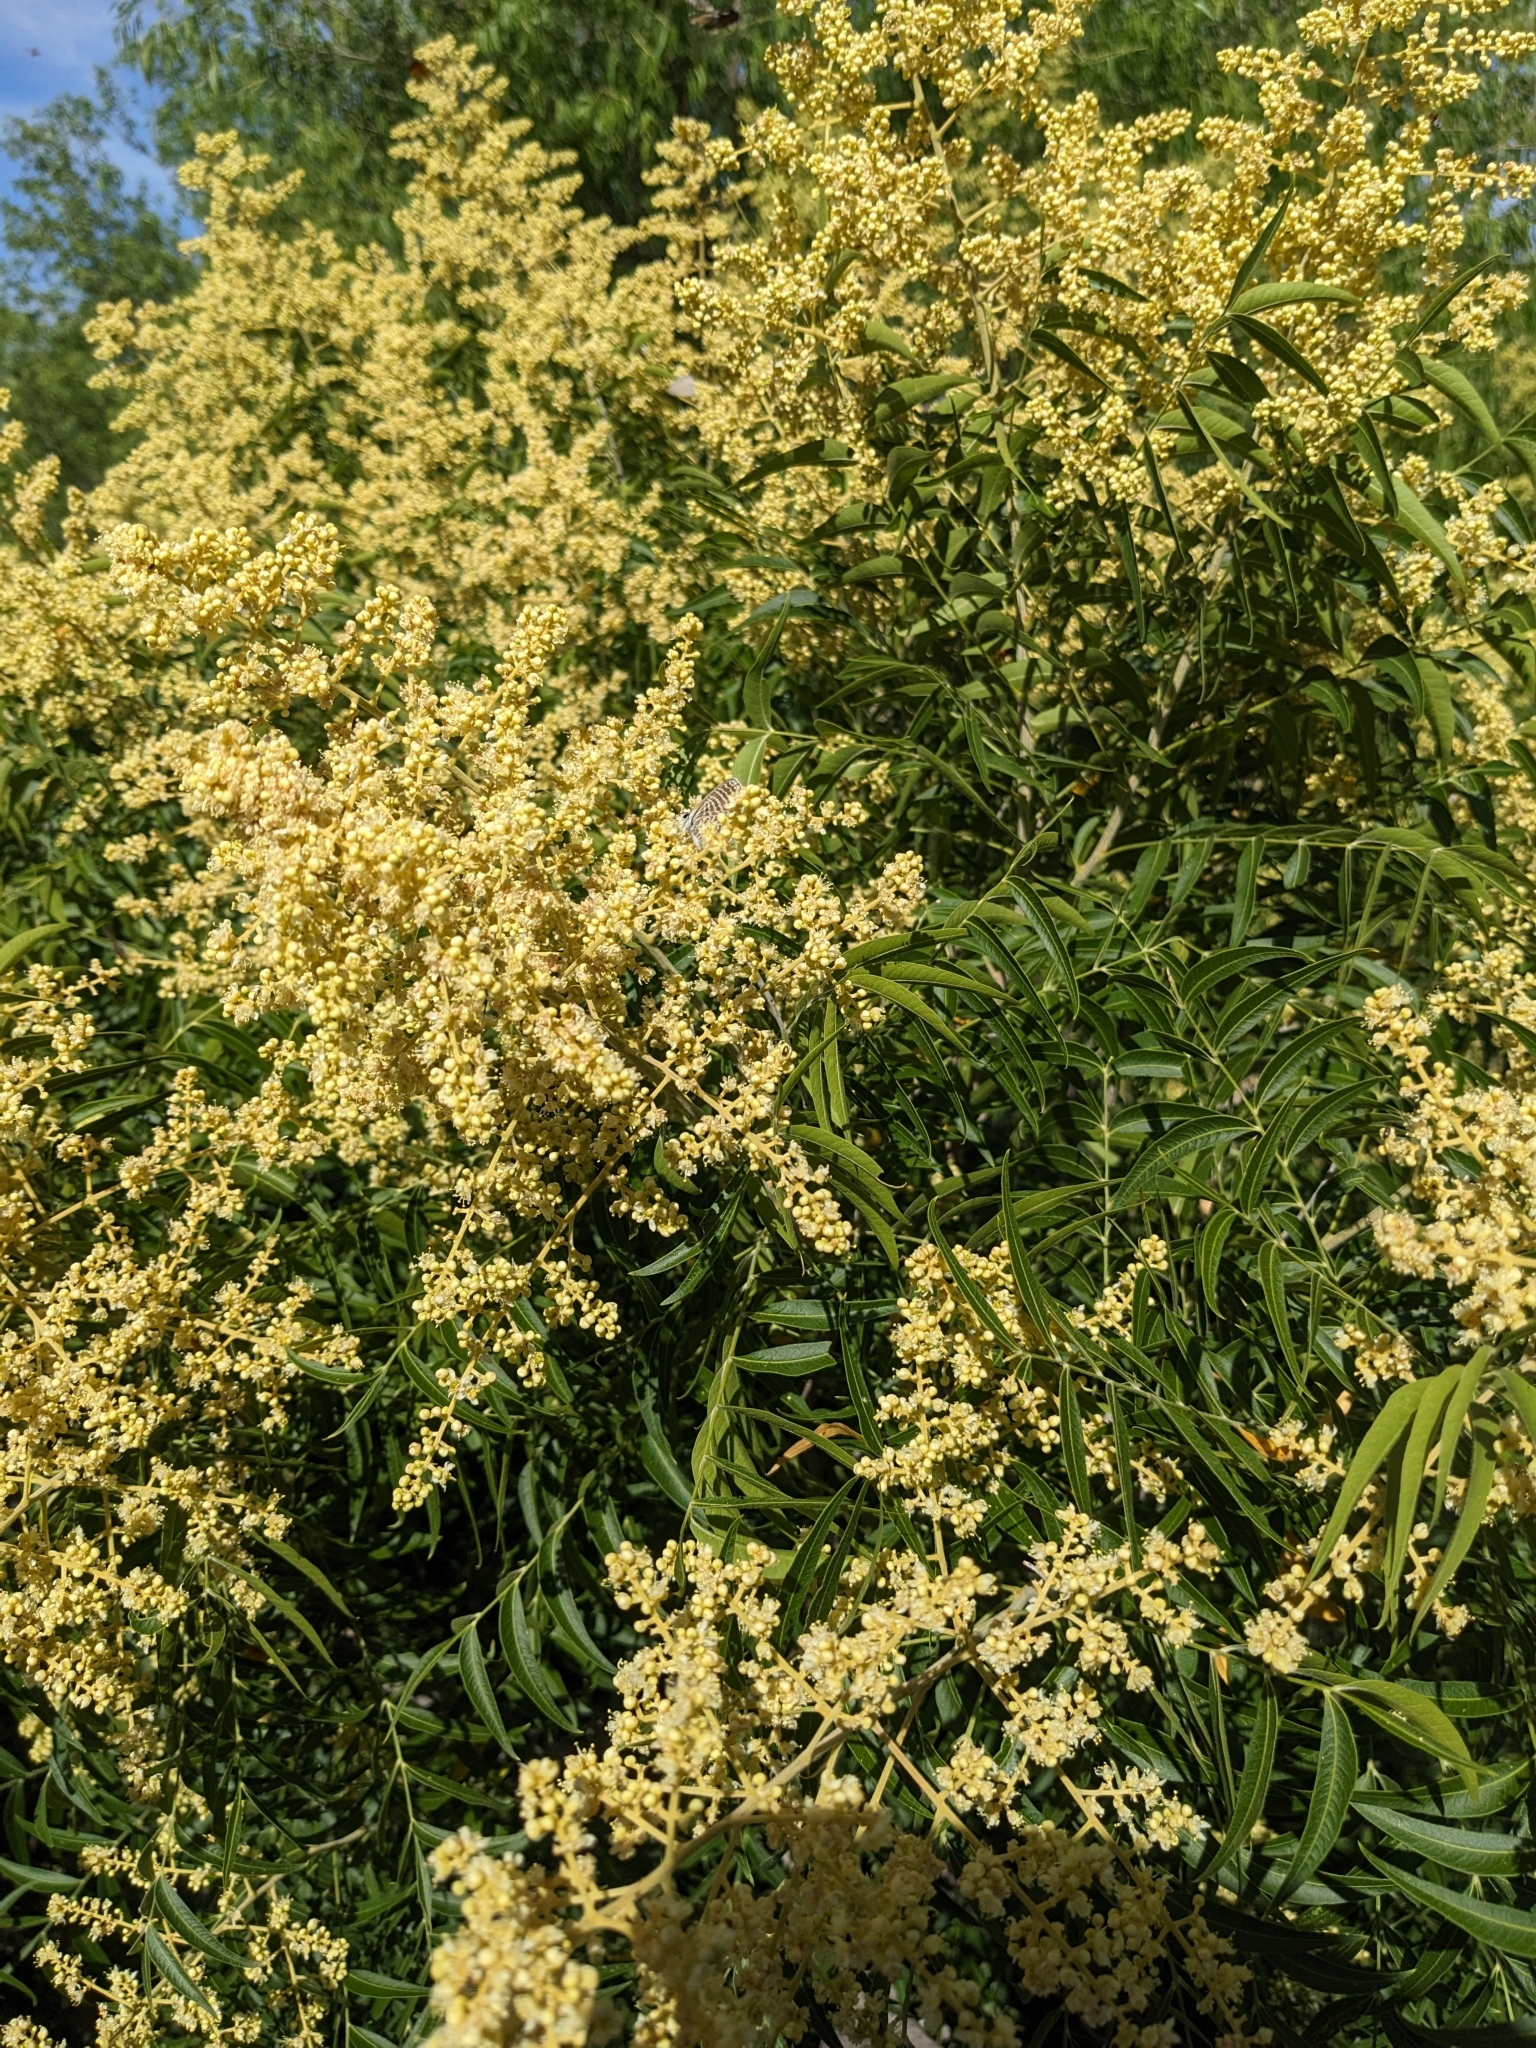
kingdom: Plantae
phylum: Tracheophyta
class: Magnoliopsida
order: Sapindales
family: Sapindaceae
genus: Sapindus
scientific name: Sapindus drummondii
